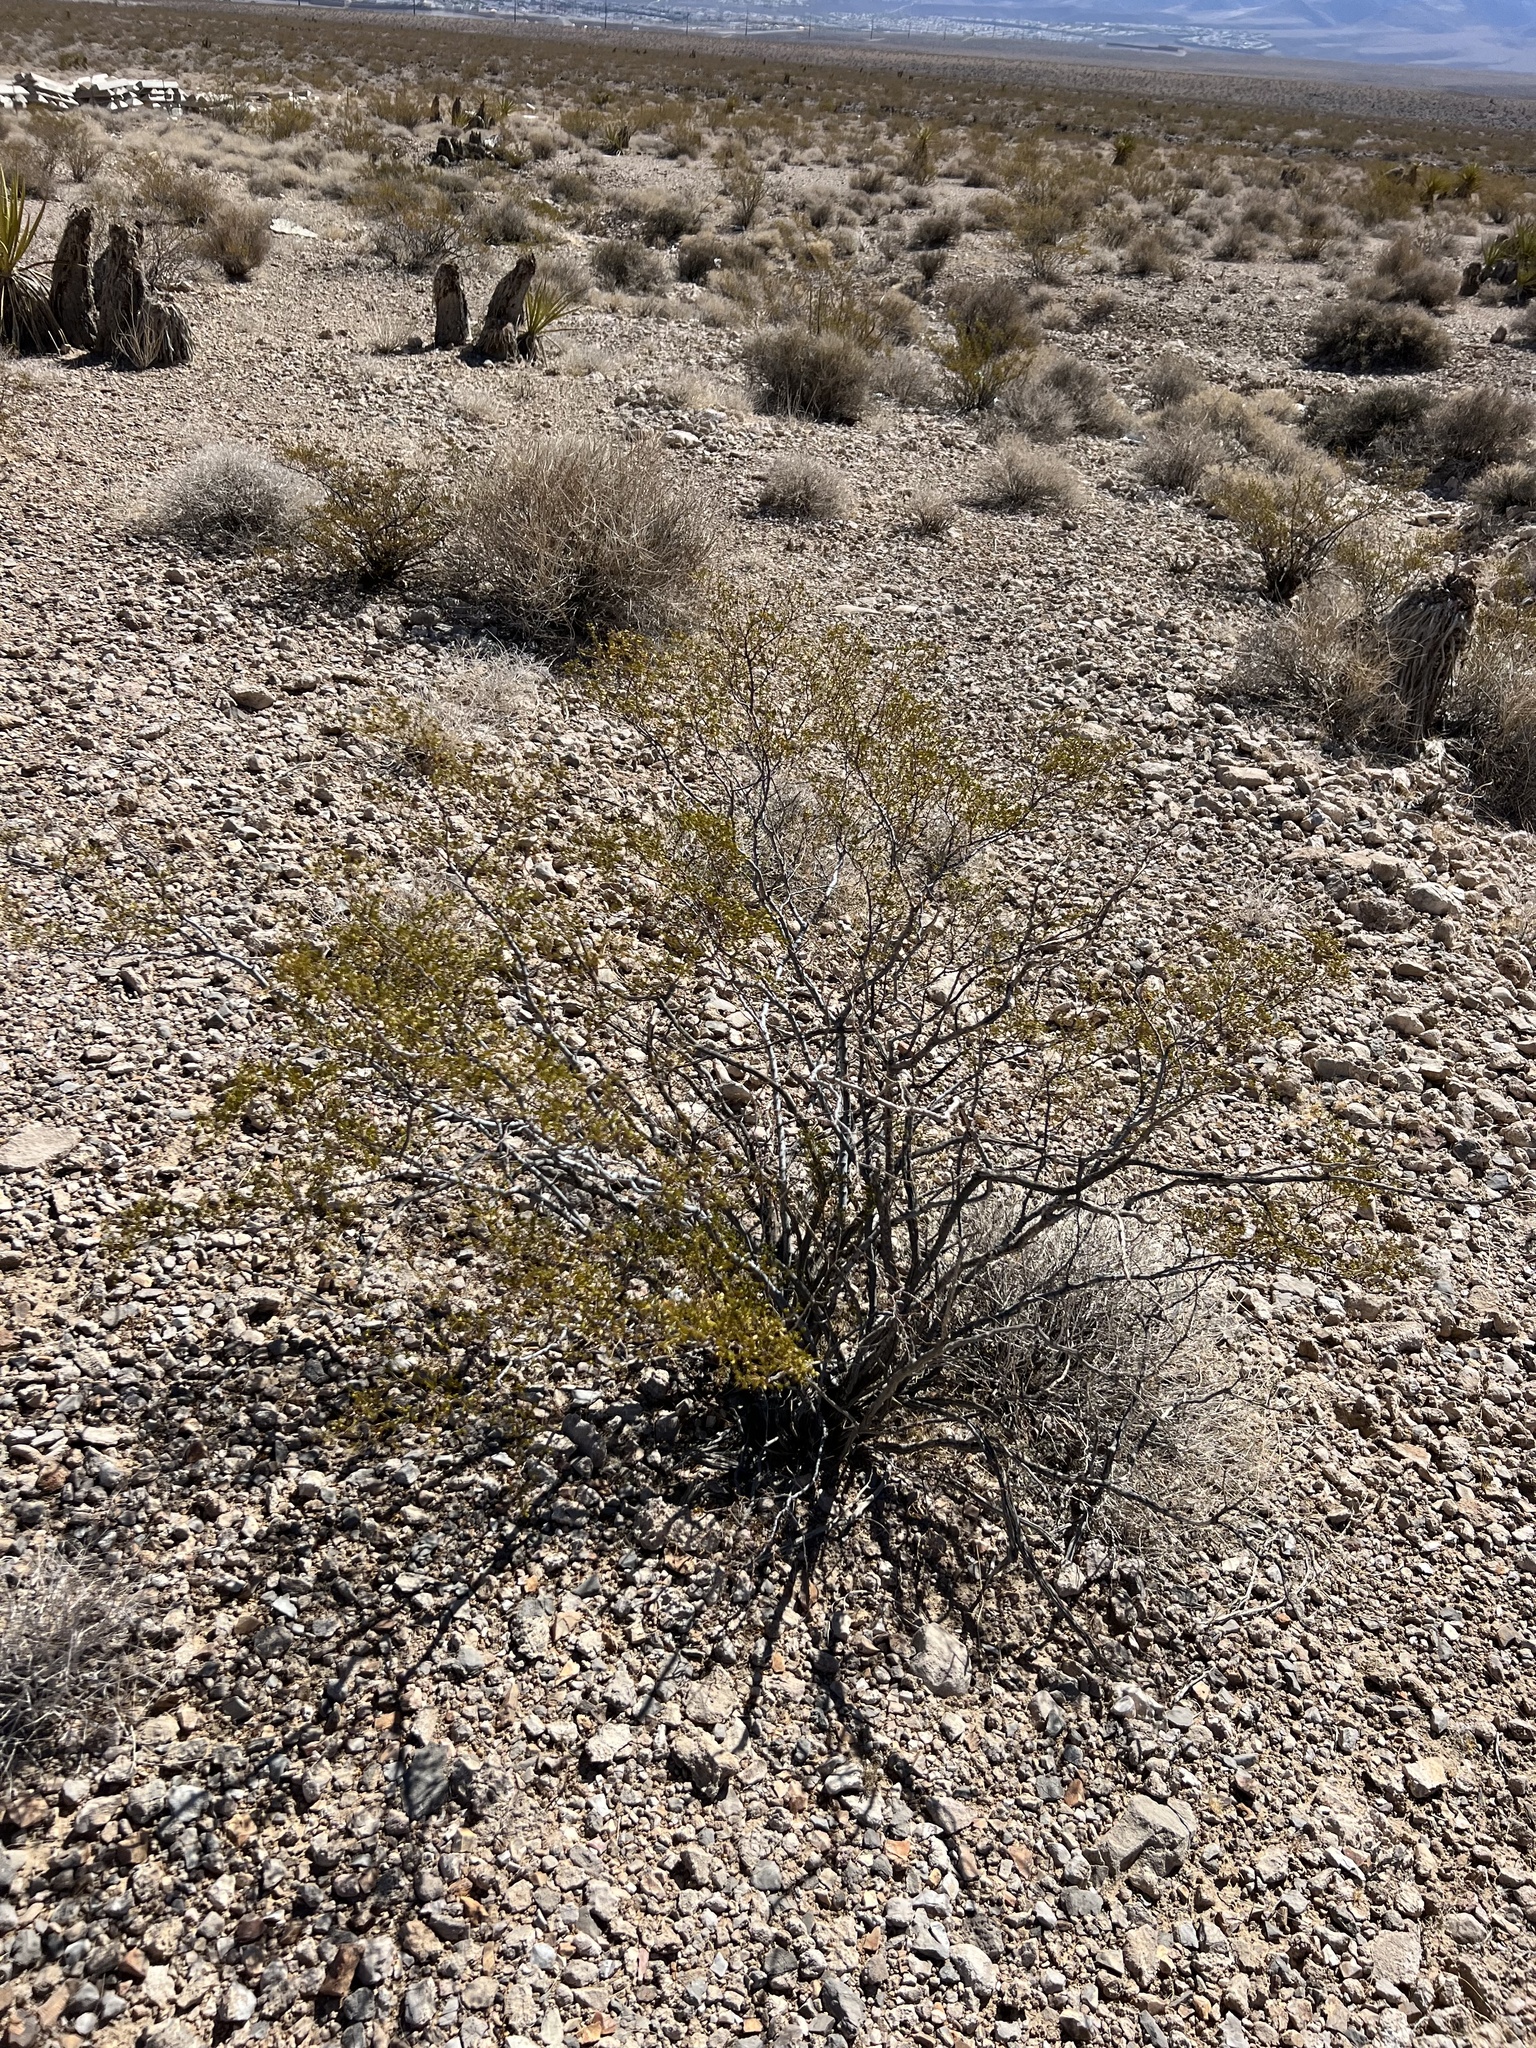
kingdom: Plantae
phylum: Tracheophyta
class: Magnoliopsida
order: Zygophyllales
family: Zygophyllaceae
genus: Larrea
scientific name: Larrea tridentata
